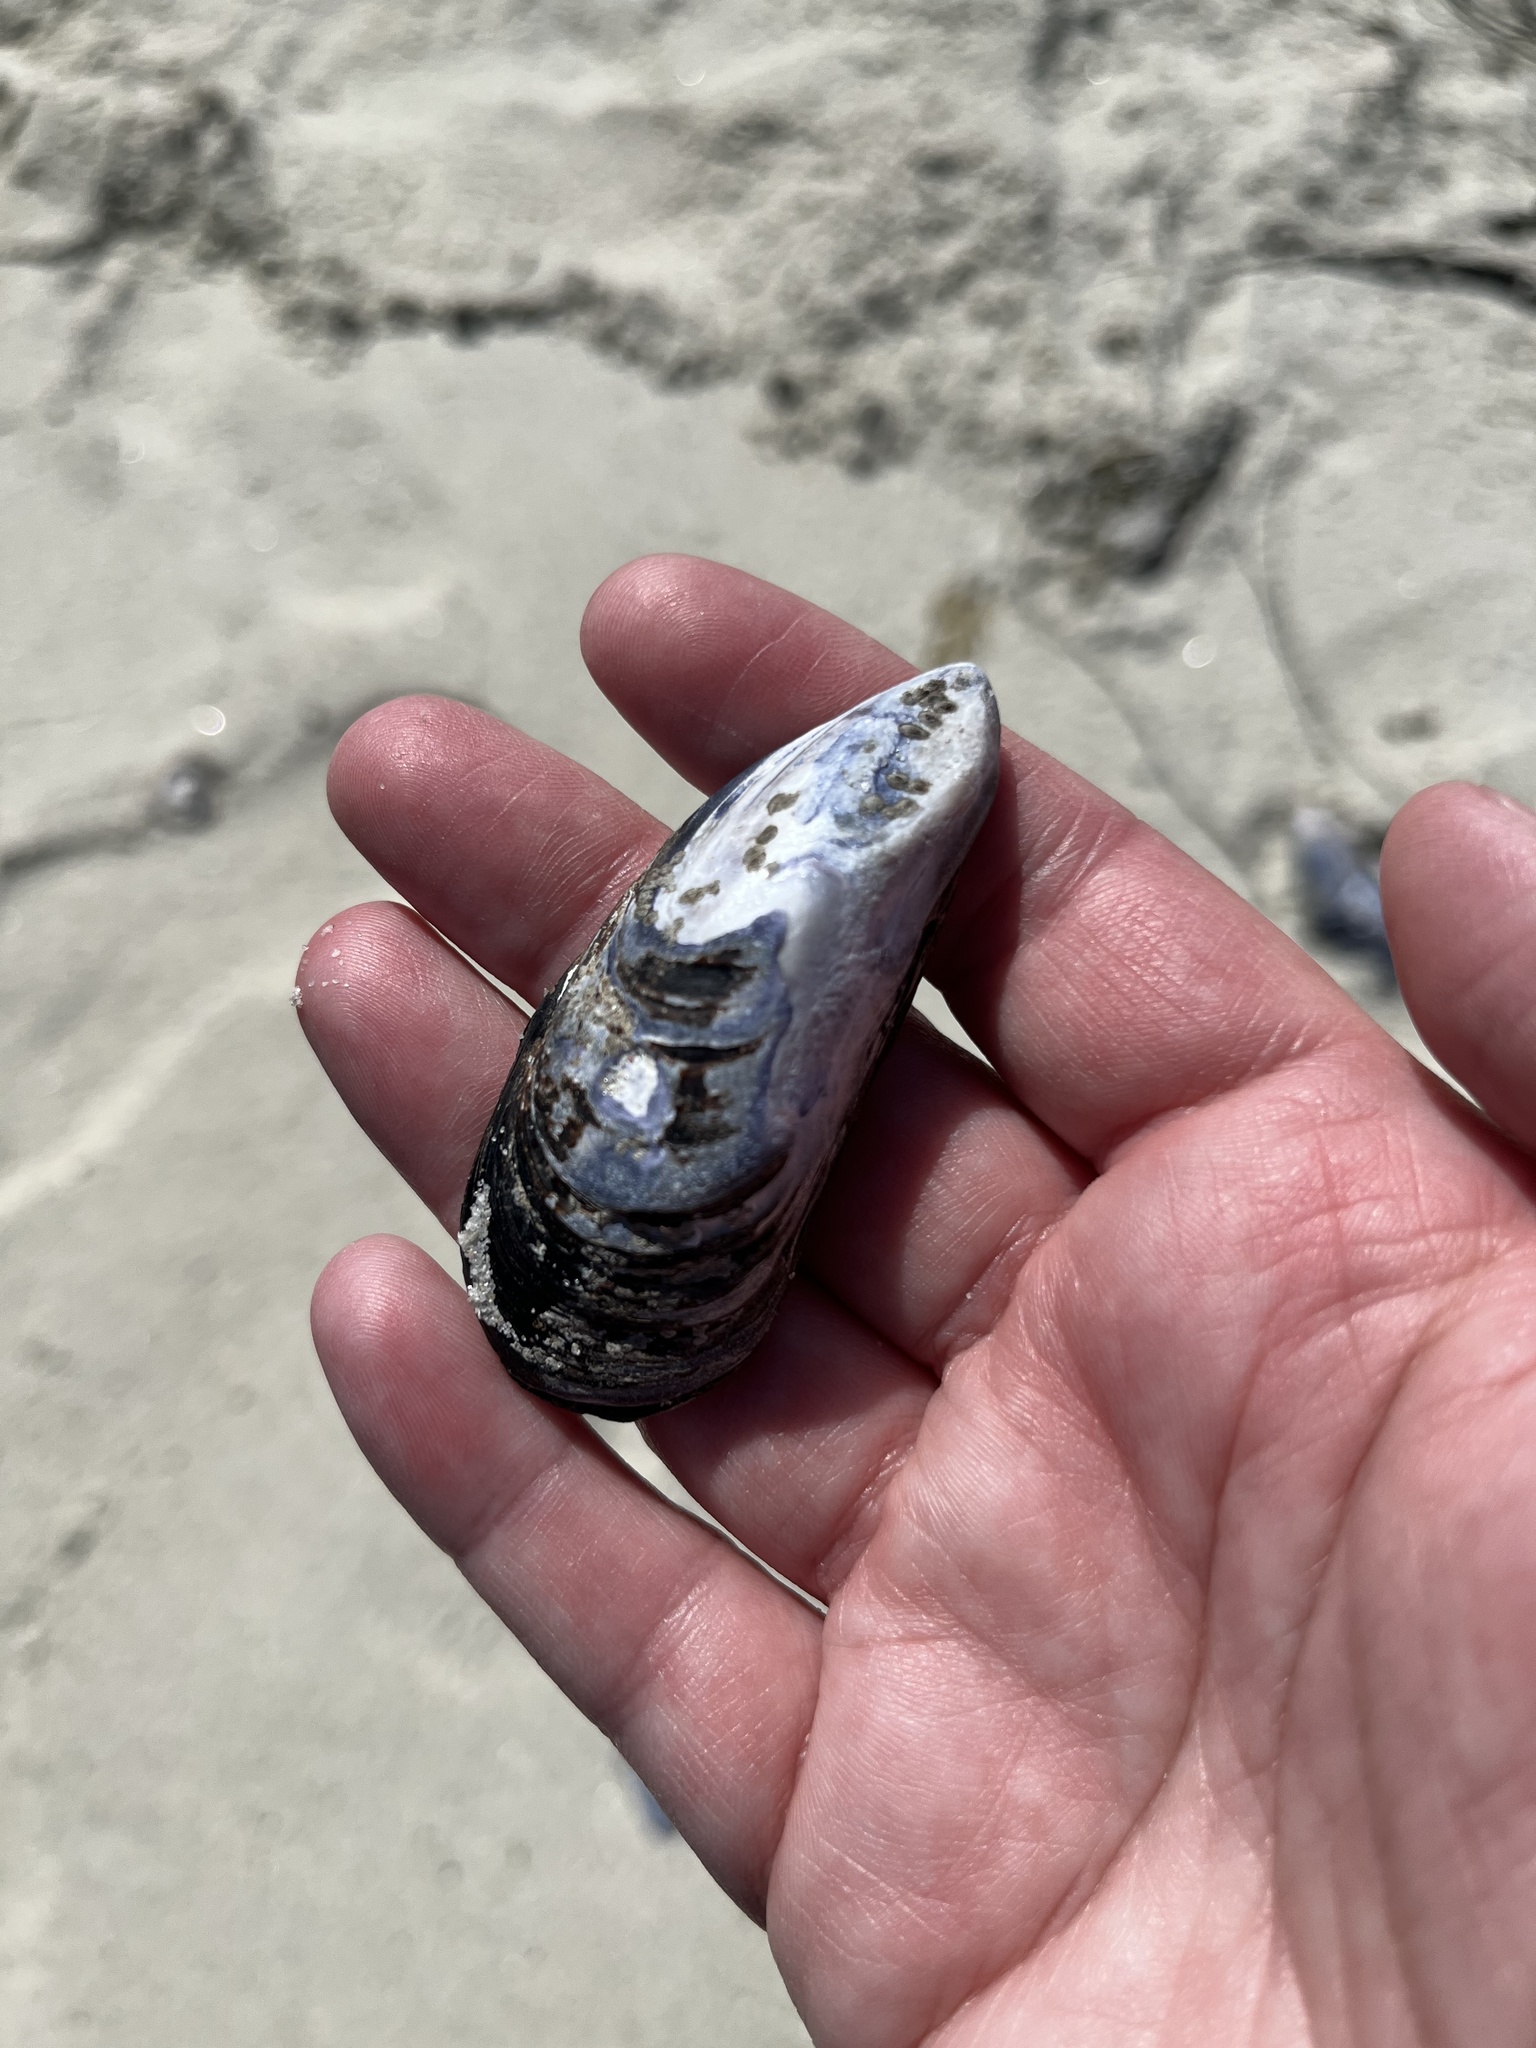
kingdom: Animalia
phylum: Mollusca
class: Bivalvia
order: Mytilida
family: Mytilidae
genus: Mytilus
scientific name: Mytilus californianus
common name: California mussel
